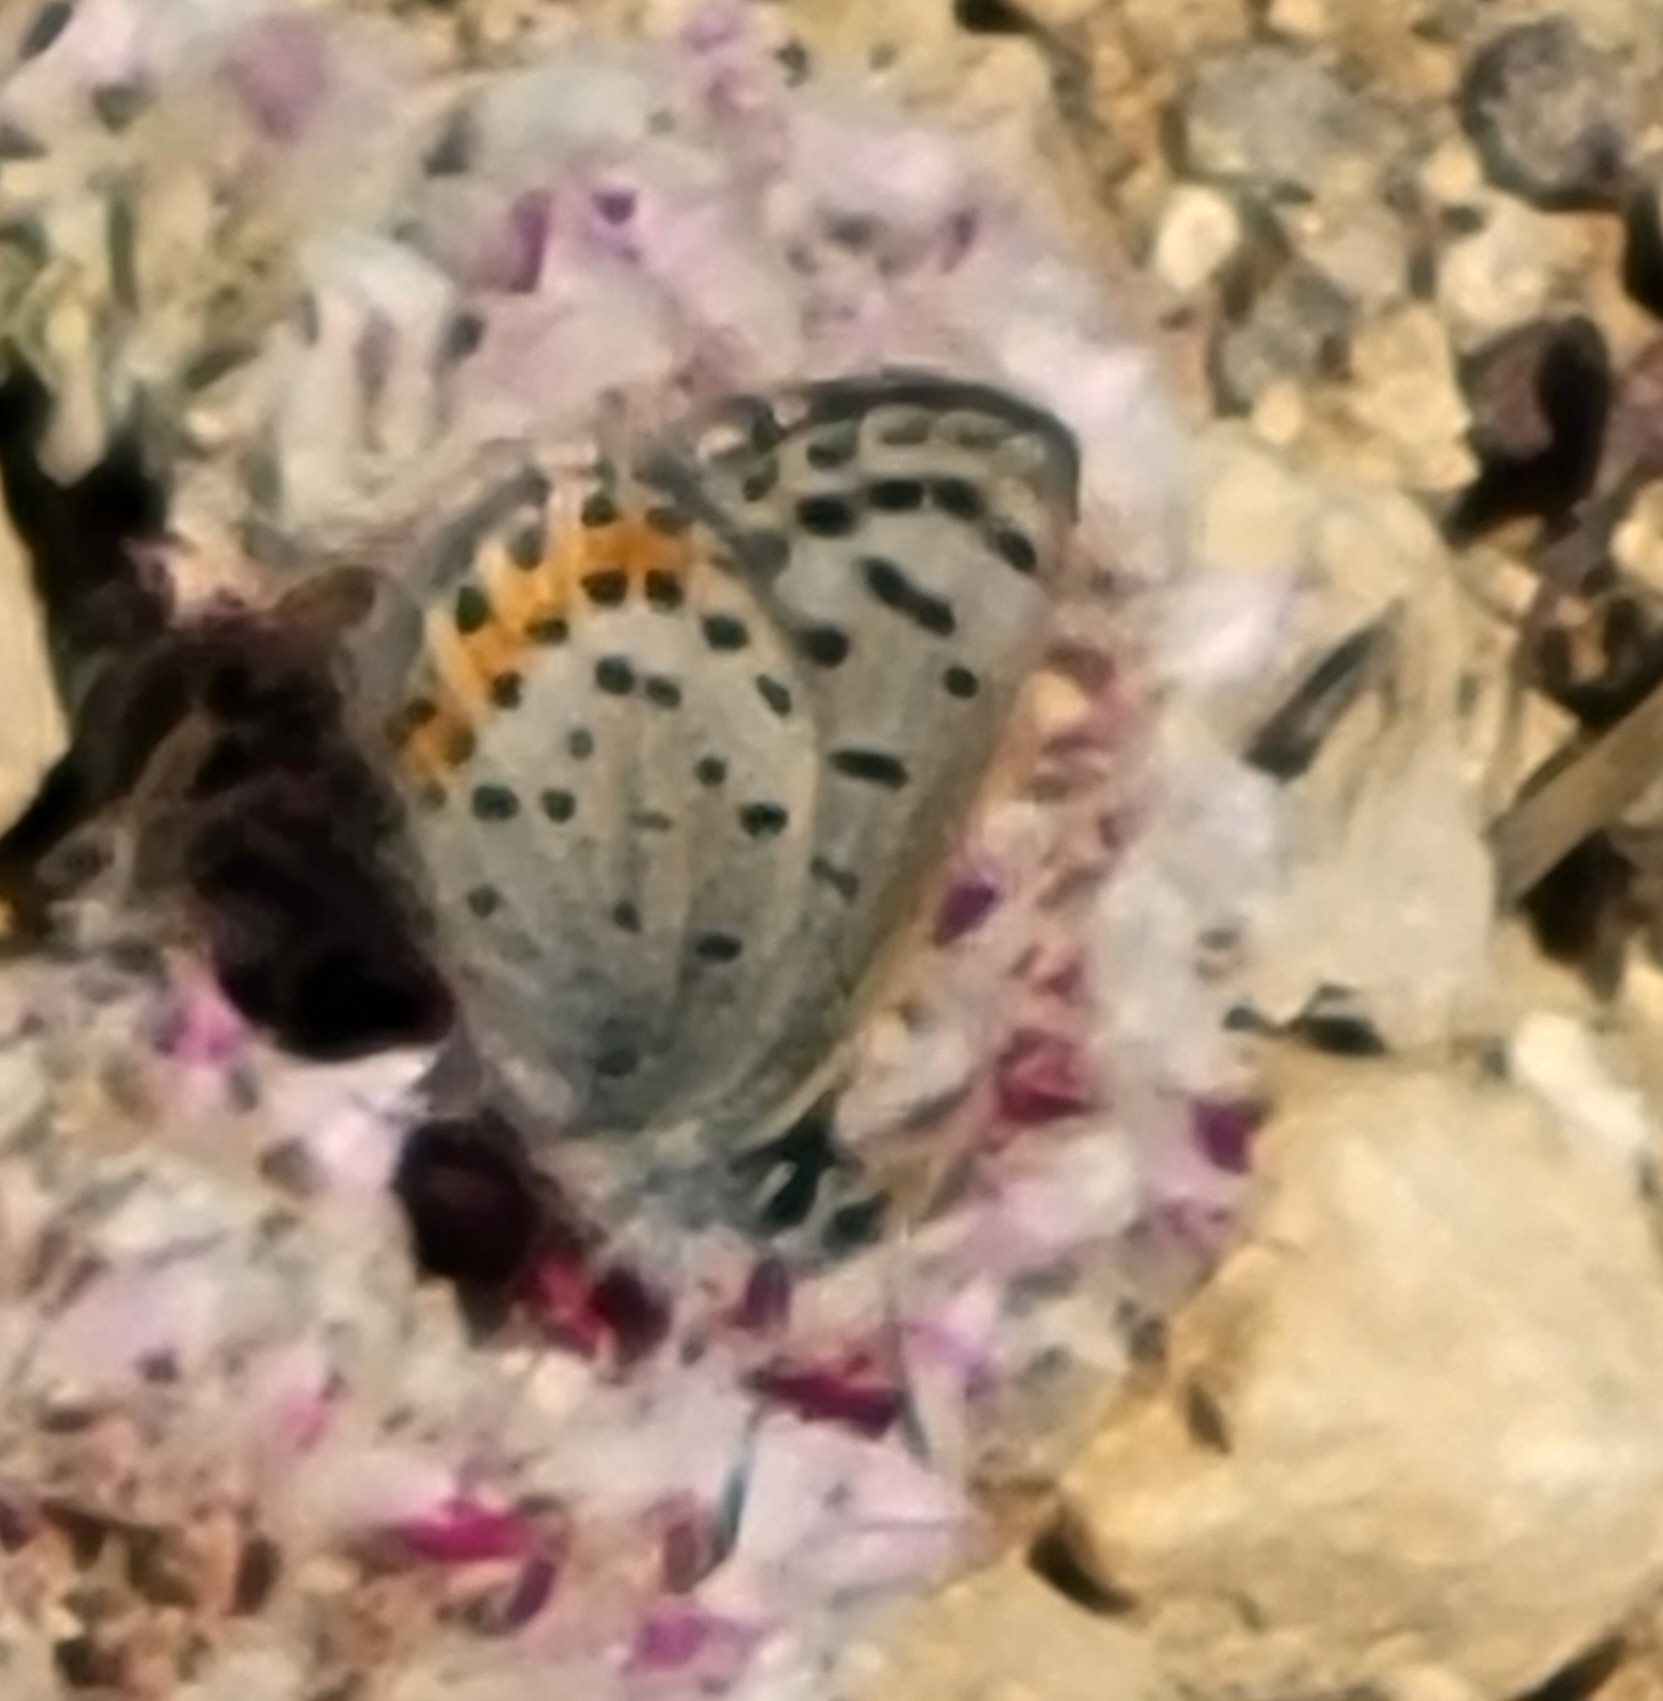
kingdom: Animalia
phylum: Arthropoda
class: Insecta
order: Lepidoptera
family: Lycaenidae
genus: Icaricia
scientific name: Icaricia acmon
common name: Acmon blue
